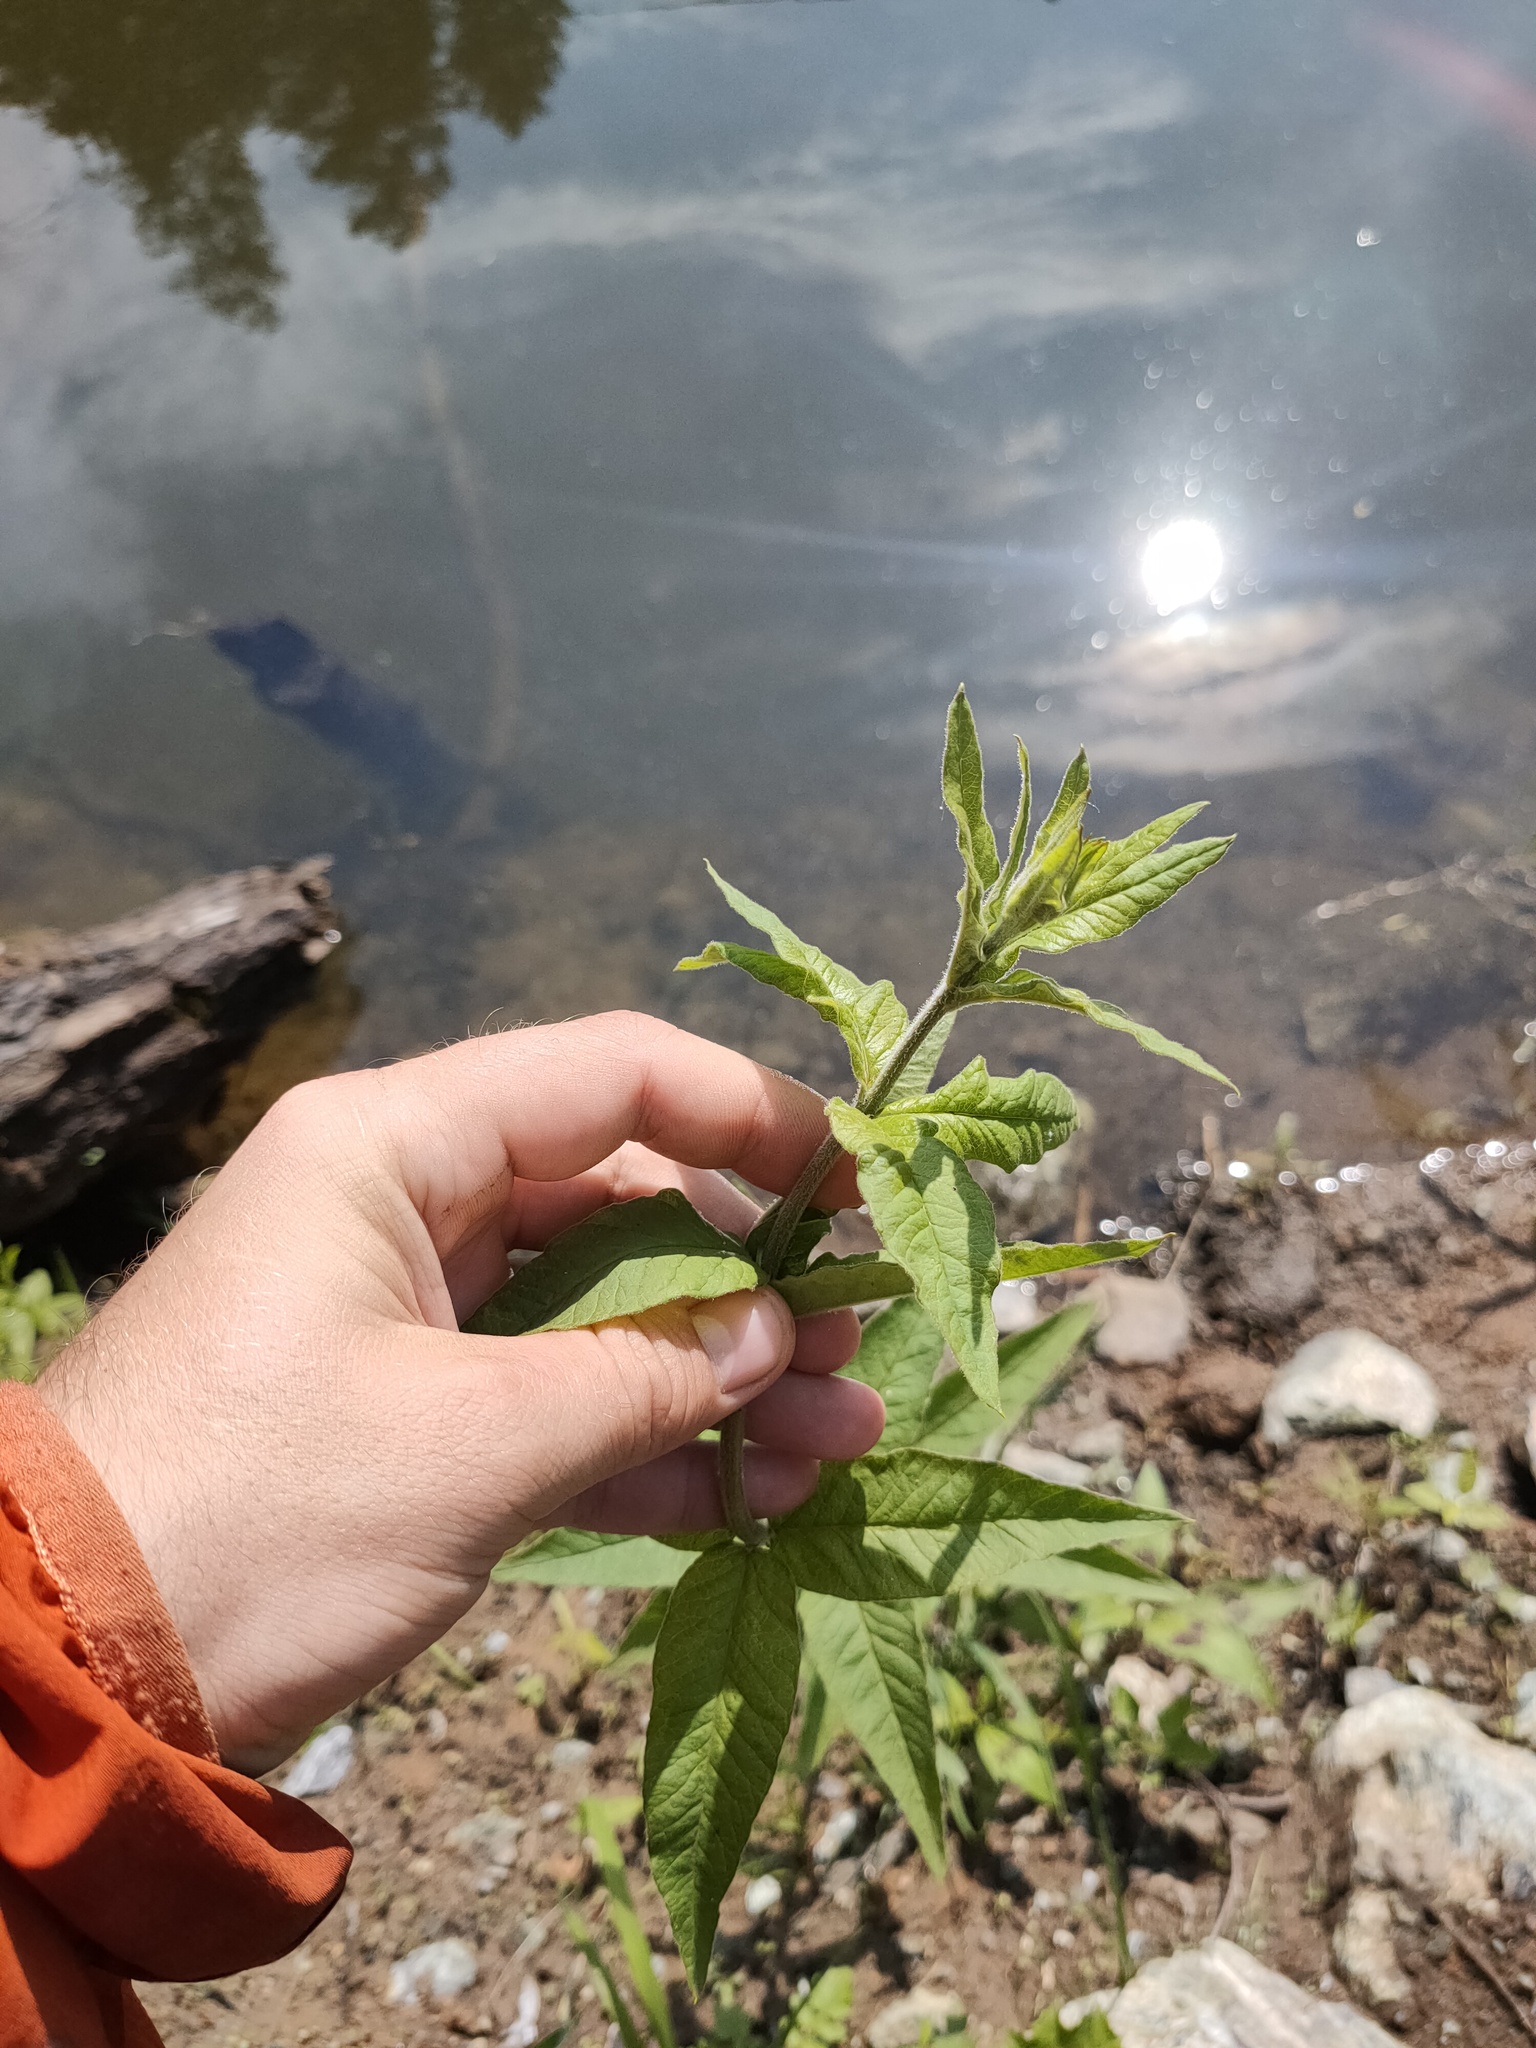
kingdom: Plantae
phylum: Tracheophyta
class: Magnoliopsida
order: Ericales
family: Primulaceae
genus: Lysimachia
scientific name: Lysimachia vulgaris
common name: Yellow loosestrife
